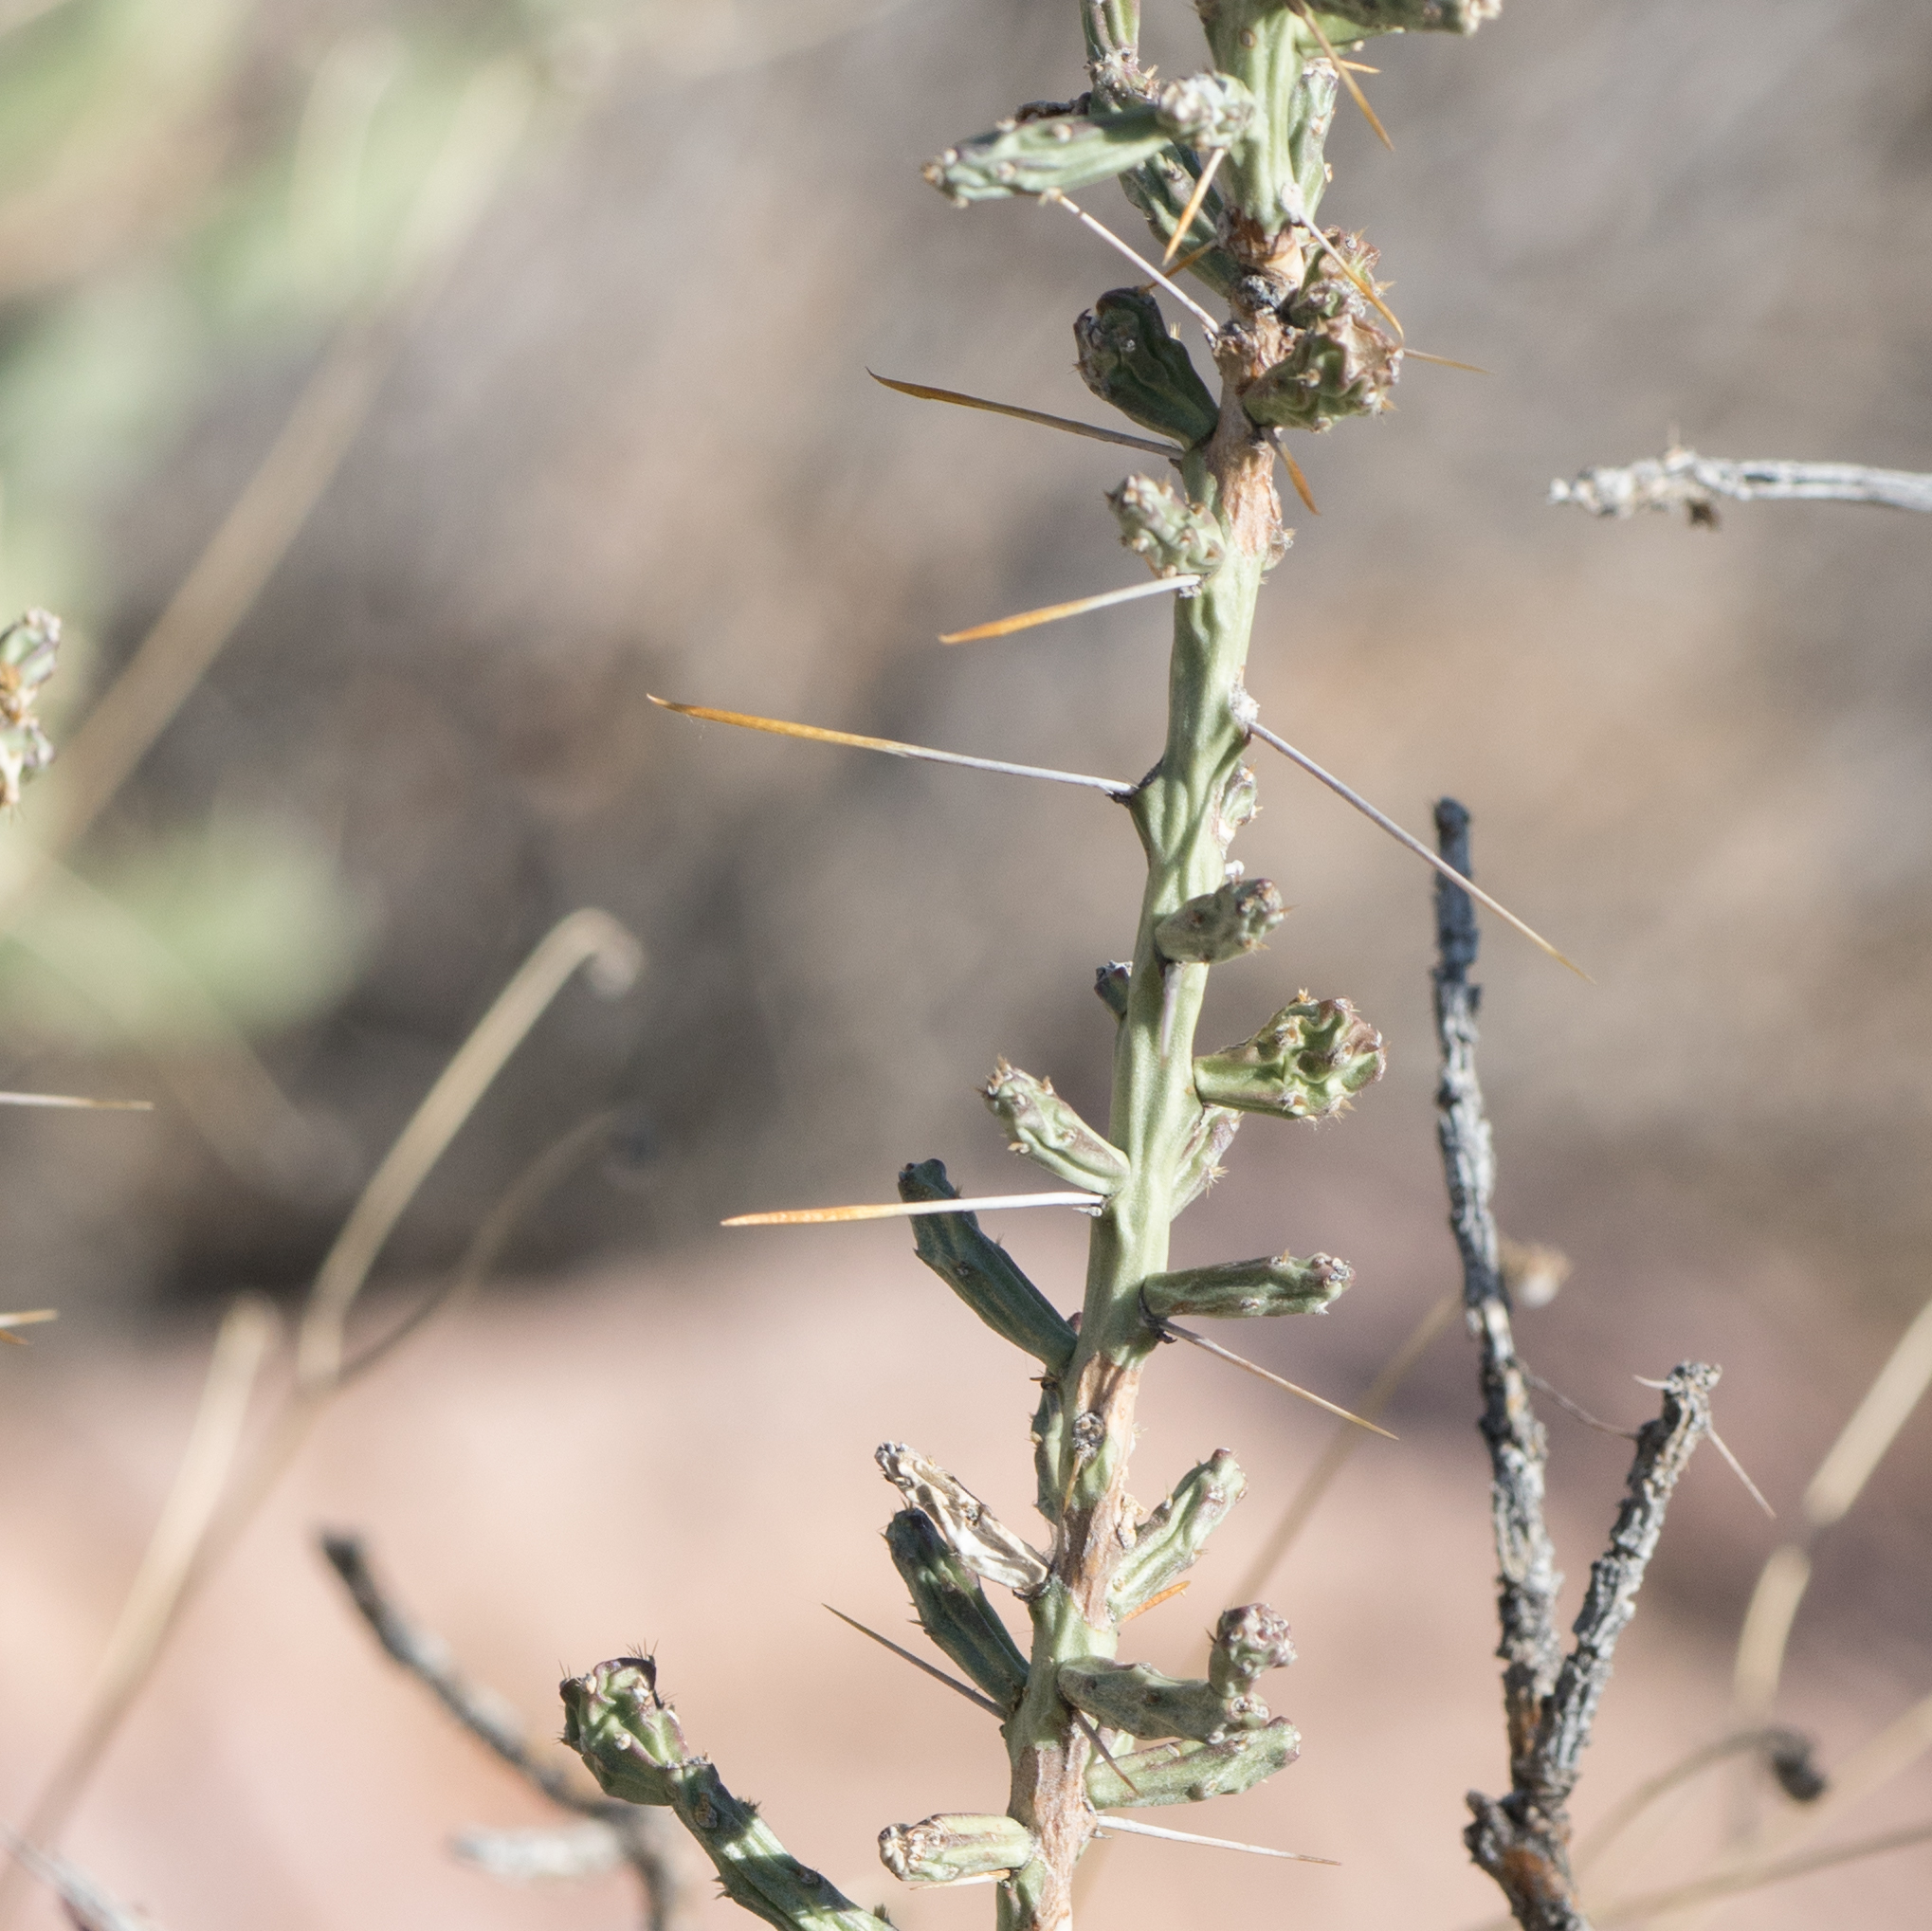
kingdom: Plantae
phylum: Tracheophyta
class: Magnoliopsida
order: Caryophyllales
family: Cactaceae
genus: Cylindropuntia
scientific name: Cylindropuntia leptocaulis
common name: Christmas cactus
